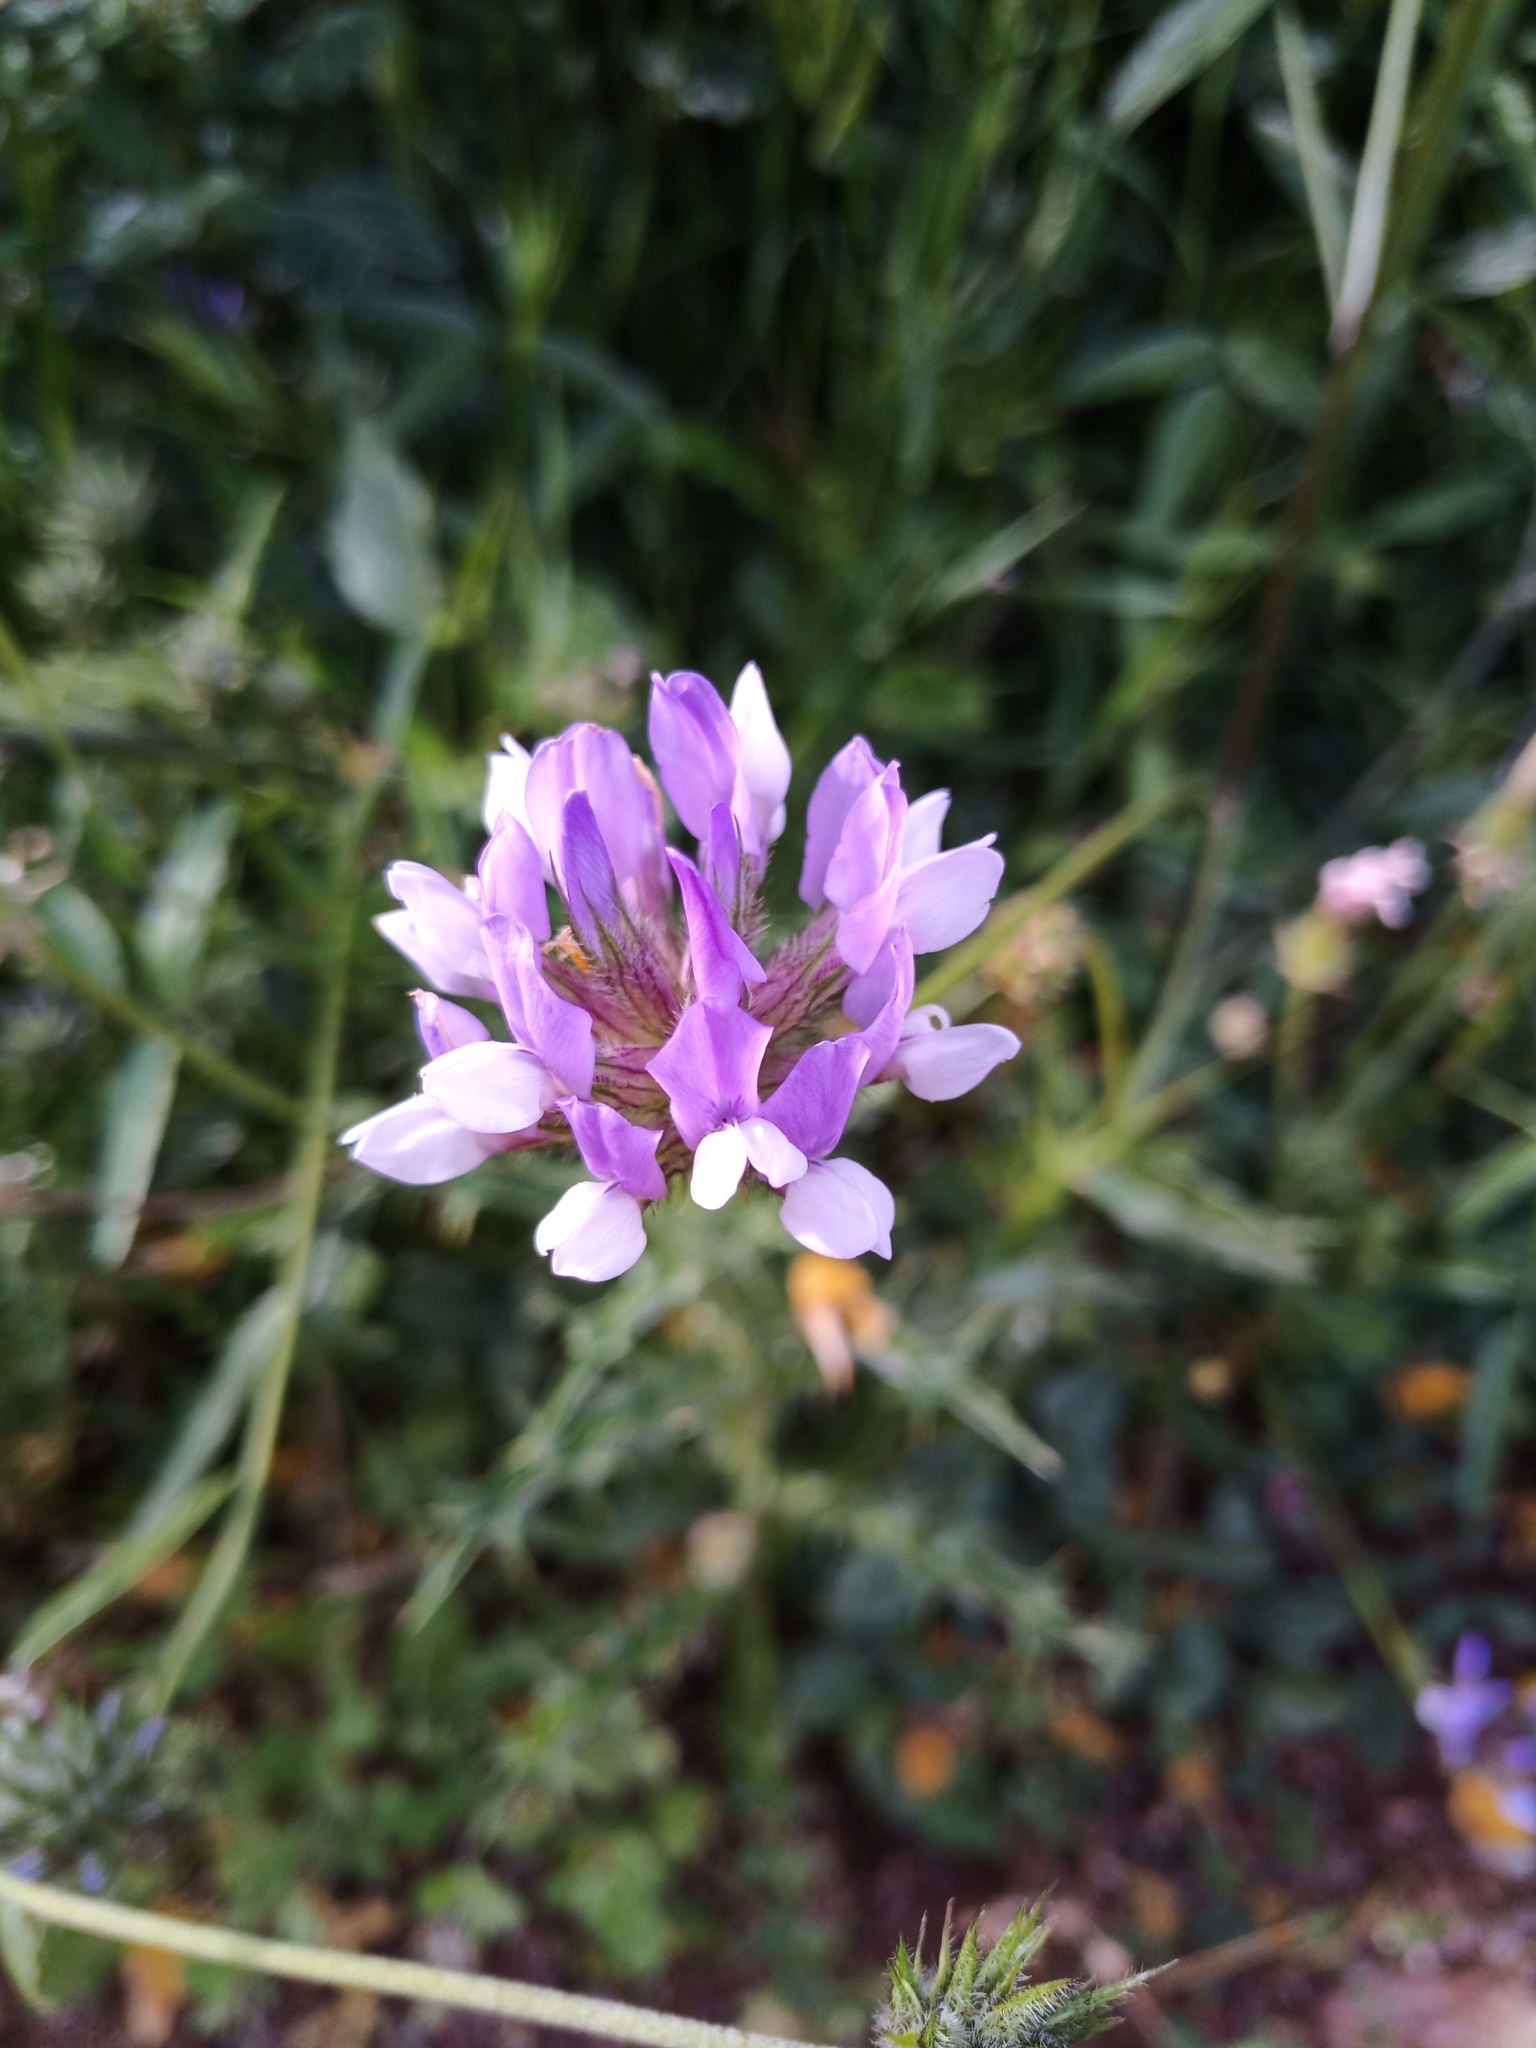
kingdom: Plantae
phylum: Tracheophyta
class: Magnoliopsida
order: Fabales
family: Fabaceae
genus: Bituminaria
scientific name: Bituminaria bituminosa
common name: Arabian pea
